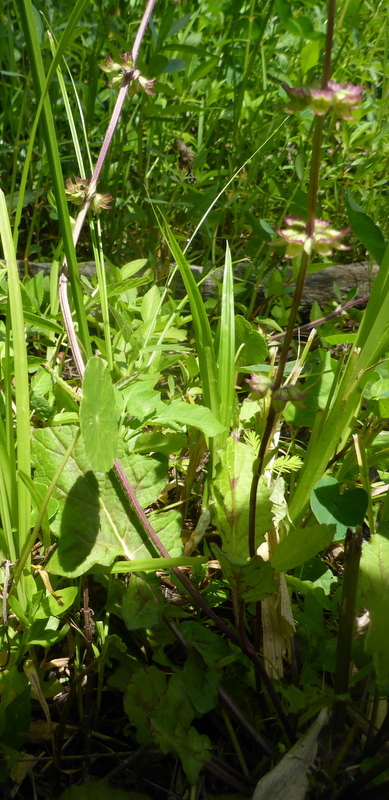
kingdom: Plantae
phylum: Tracheophyta
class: Magnoliopsida
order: Lamiales
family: Lamiaceae
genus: Salvia
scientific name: Salvia lyrata
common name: Cancerweed
